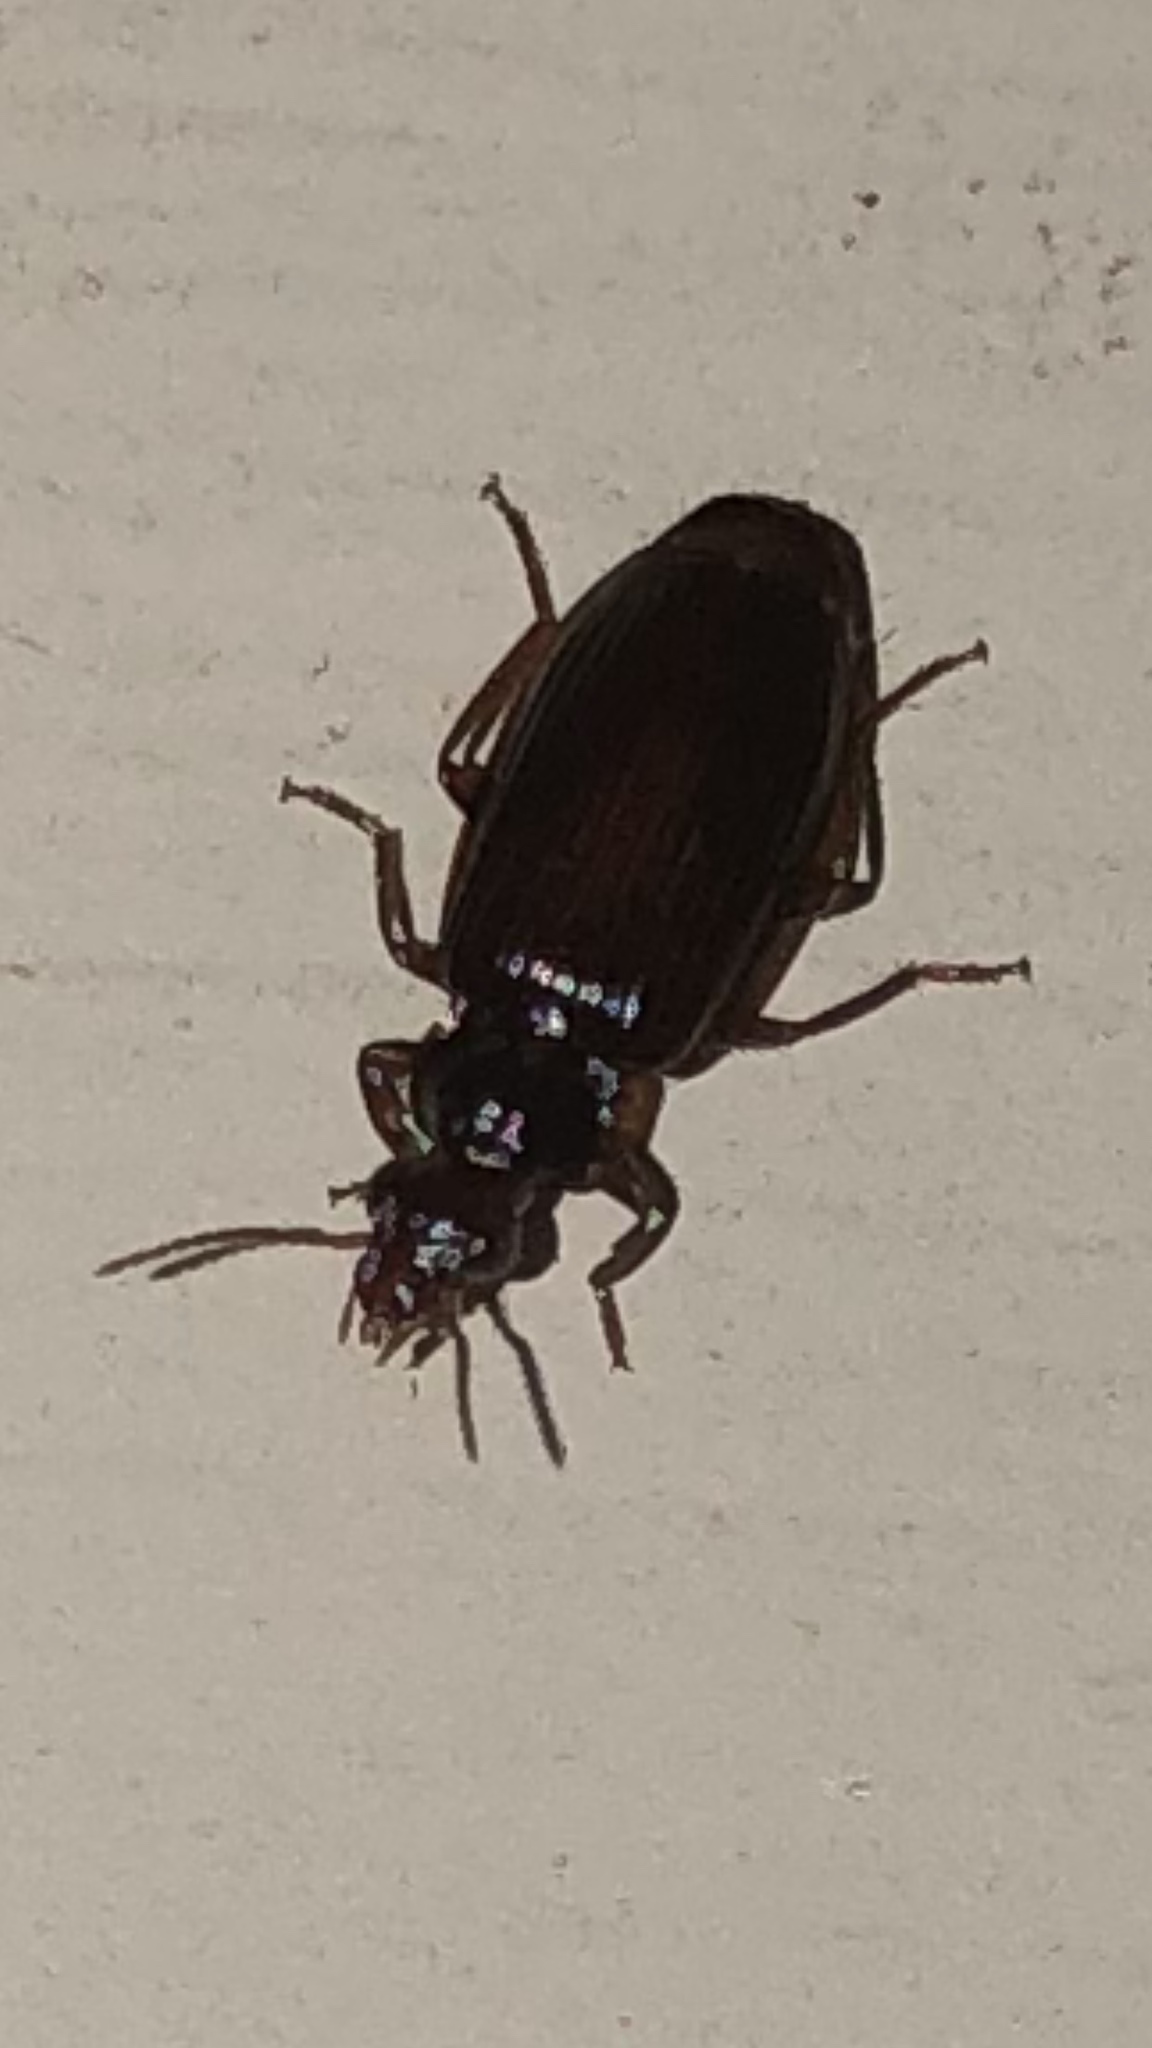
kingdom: Animalia
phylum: Arthropoda
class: Insecta
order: Coleoptera
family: Carabidae
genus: Plochionus
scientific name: Plochionus timidus
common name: Timid harp ground beetle
